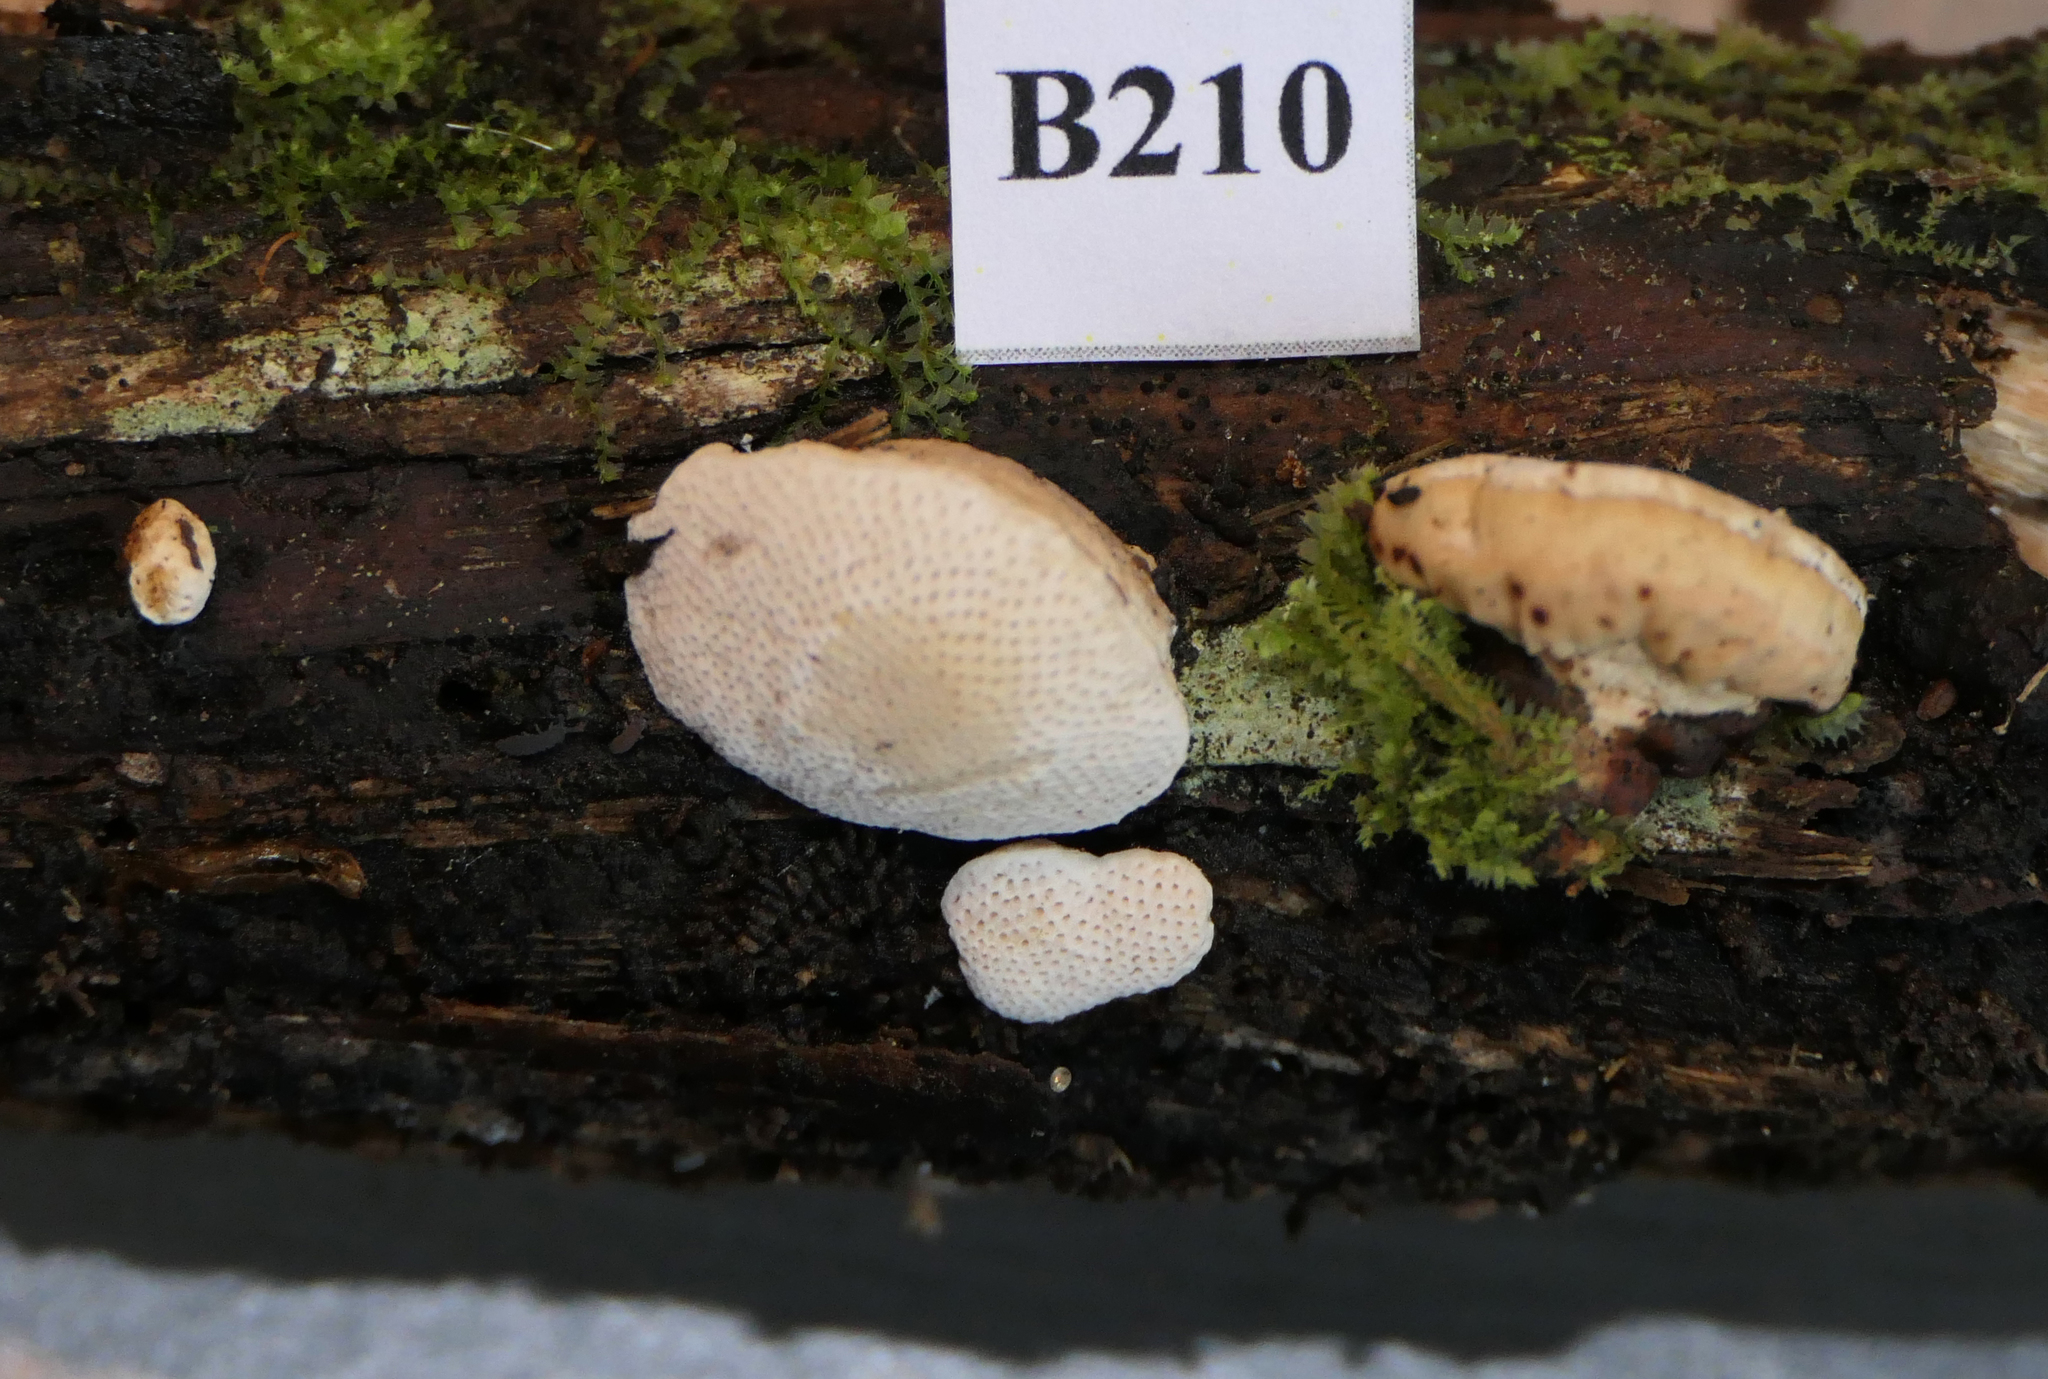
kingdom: Fungi
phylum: Basidiomycota
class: Agaricomycetes
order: Polyporales
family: Polyporaceae
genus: Truncospora
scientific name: Truncospora ochroleuca
